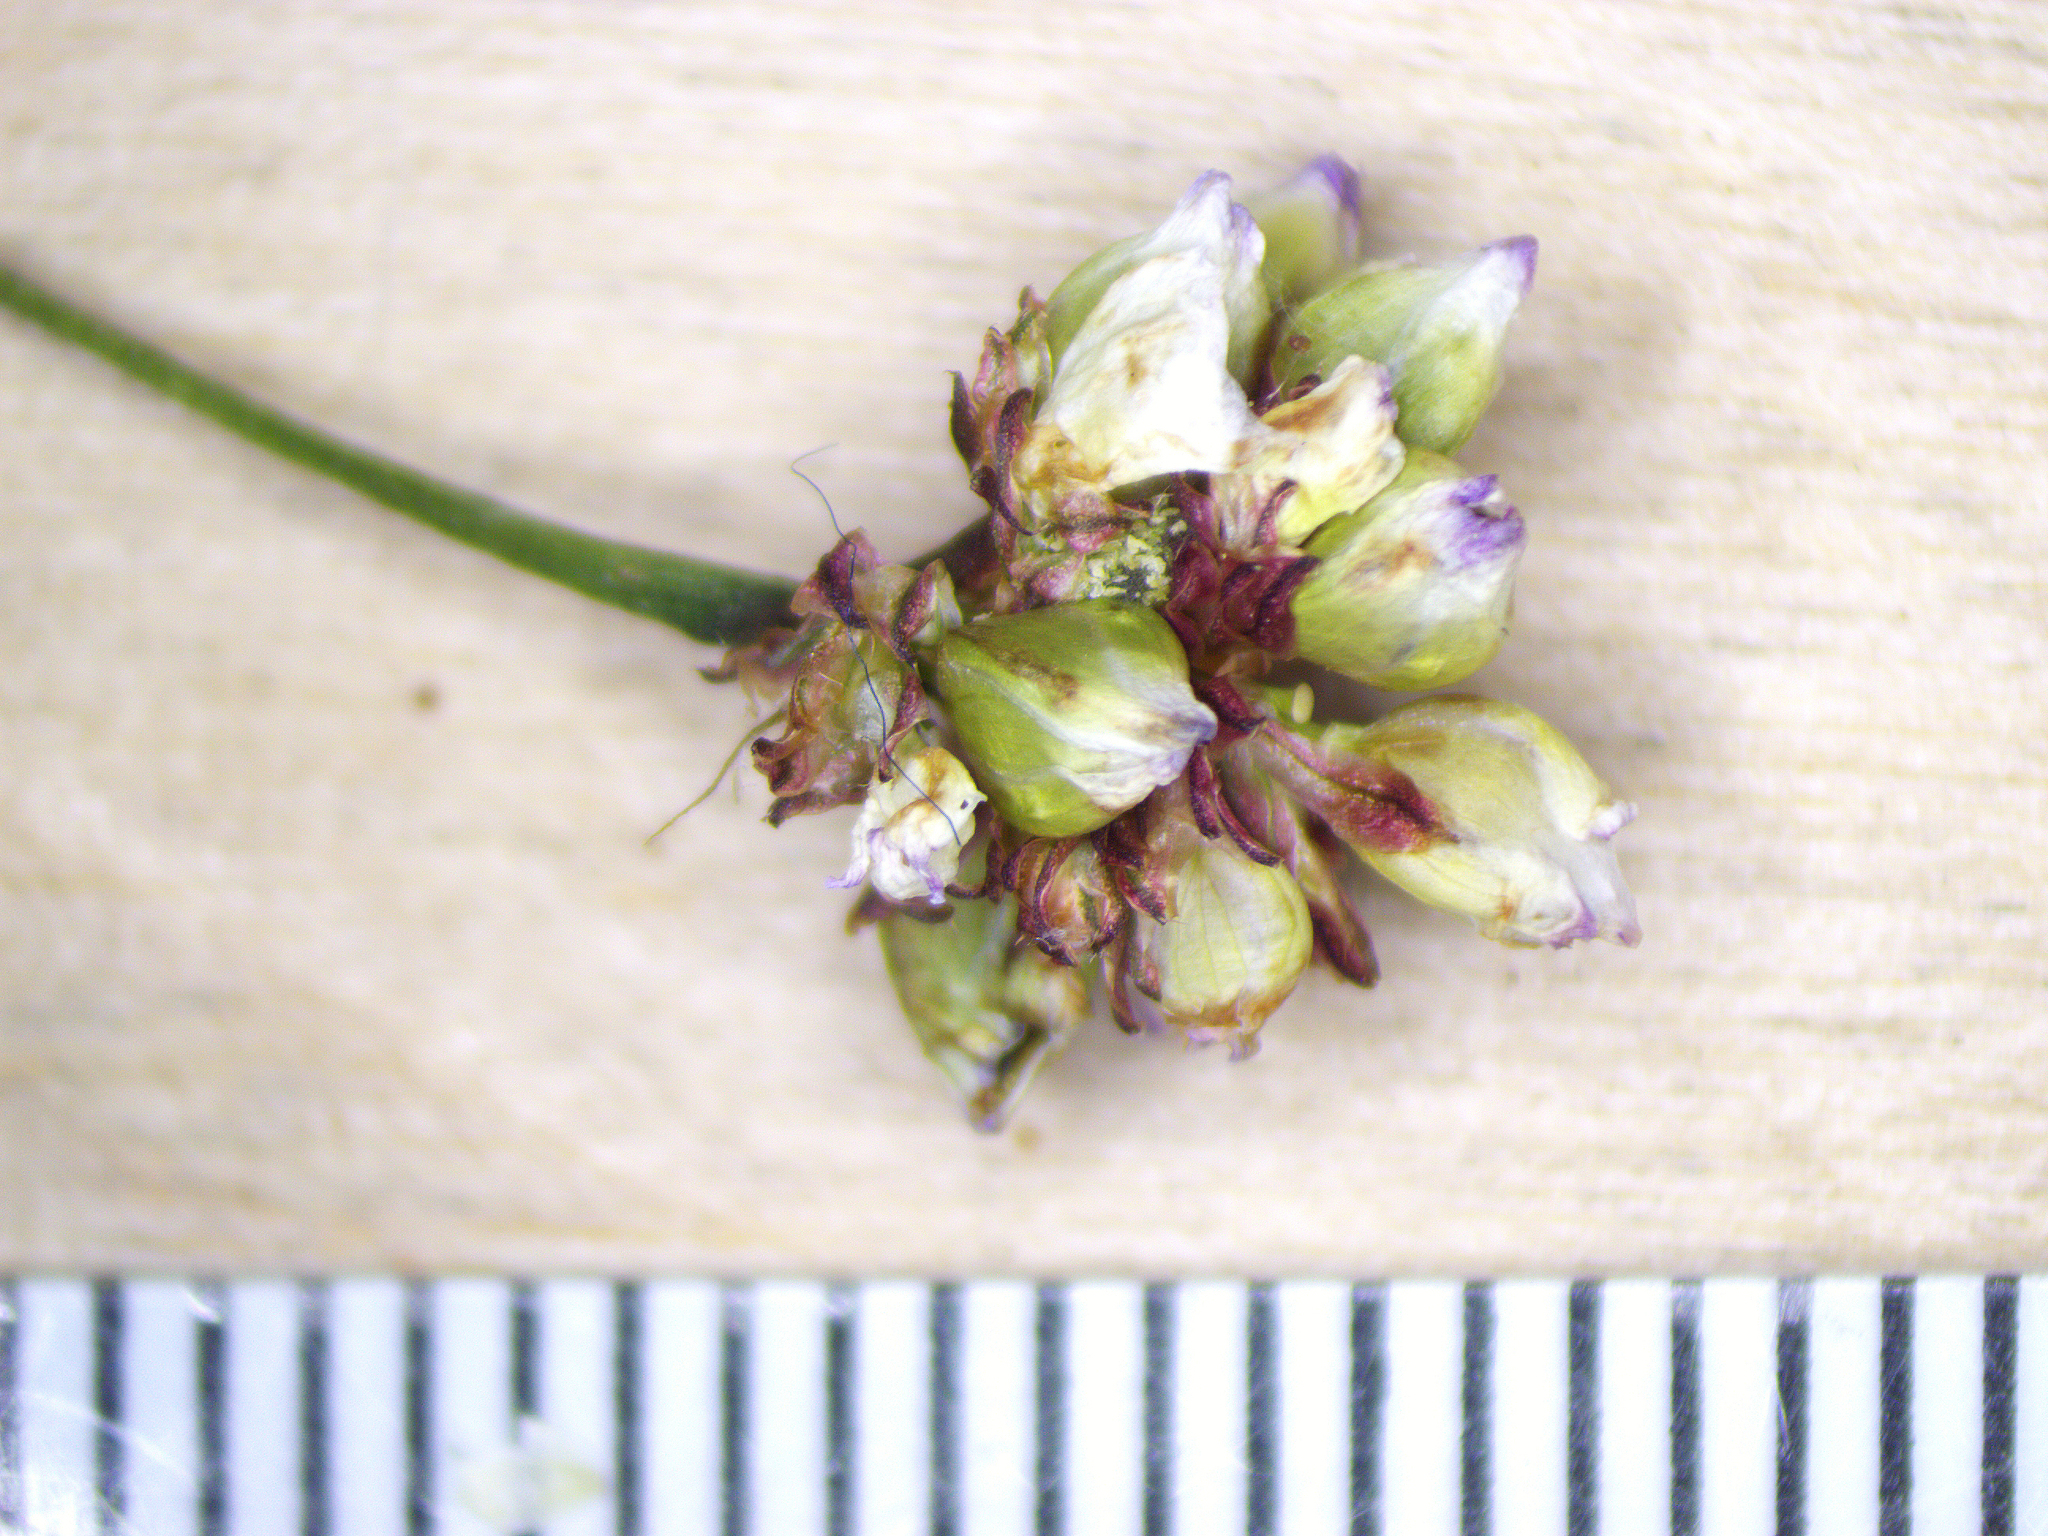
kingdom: Plantae
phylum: Tracheophyta
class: Magnoliopsida
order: Caryophyllales
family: Polygonaceae
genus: Persicaria
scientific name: Persicaria sagittata
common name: American tearthumb
